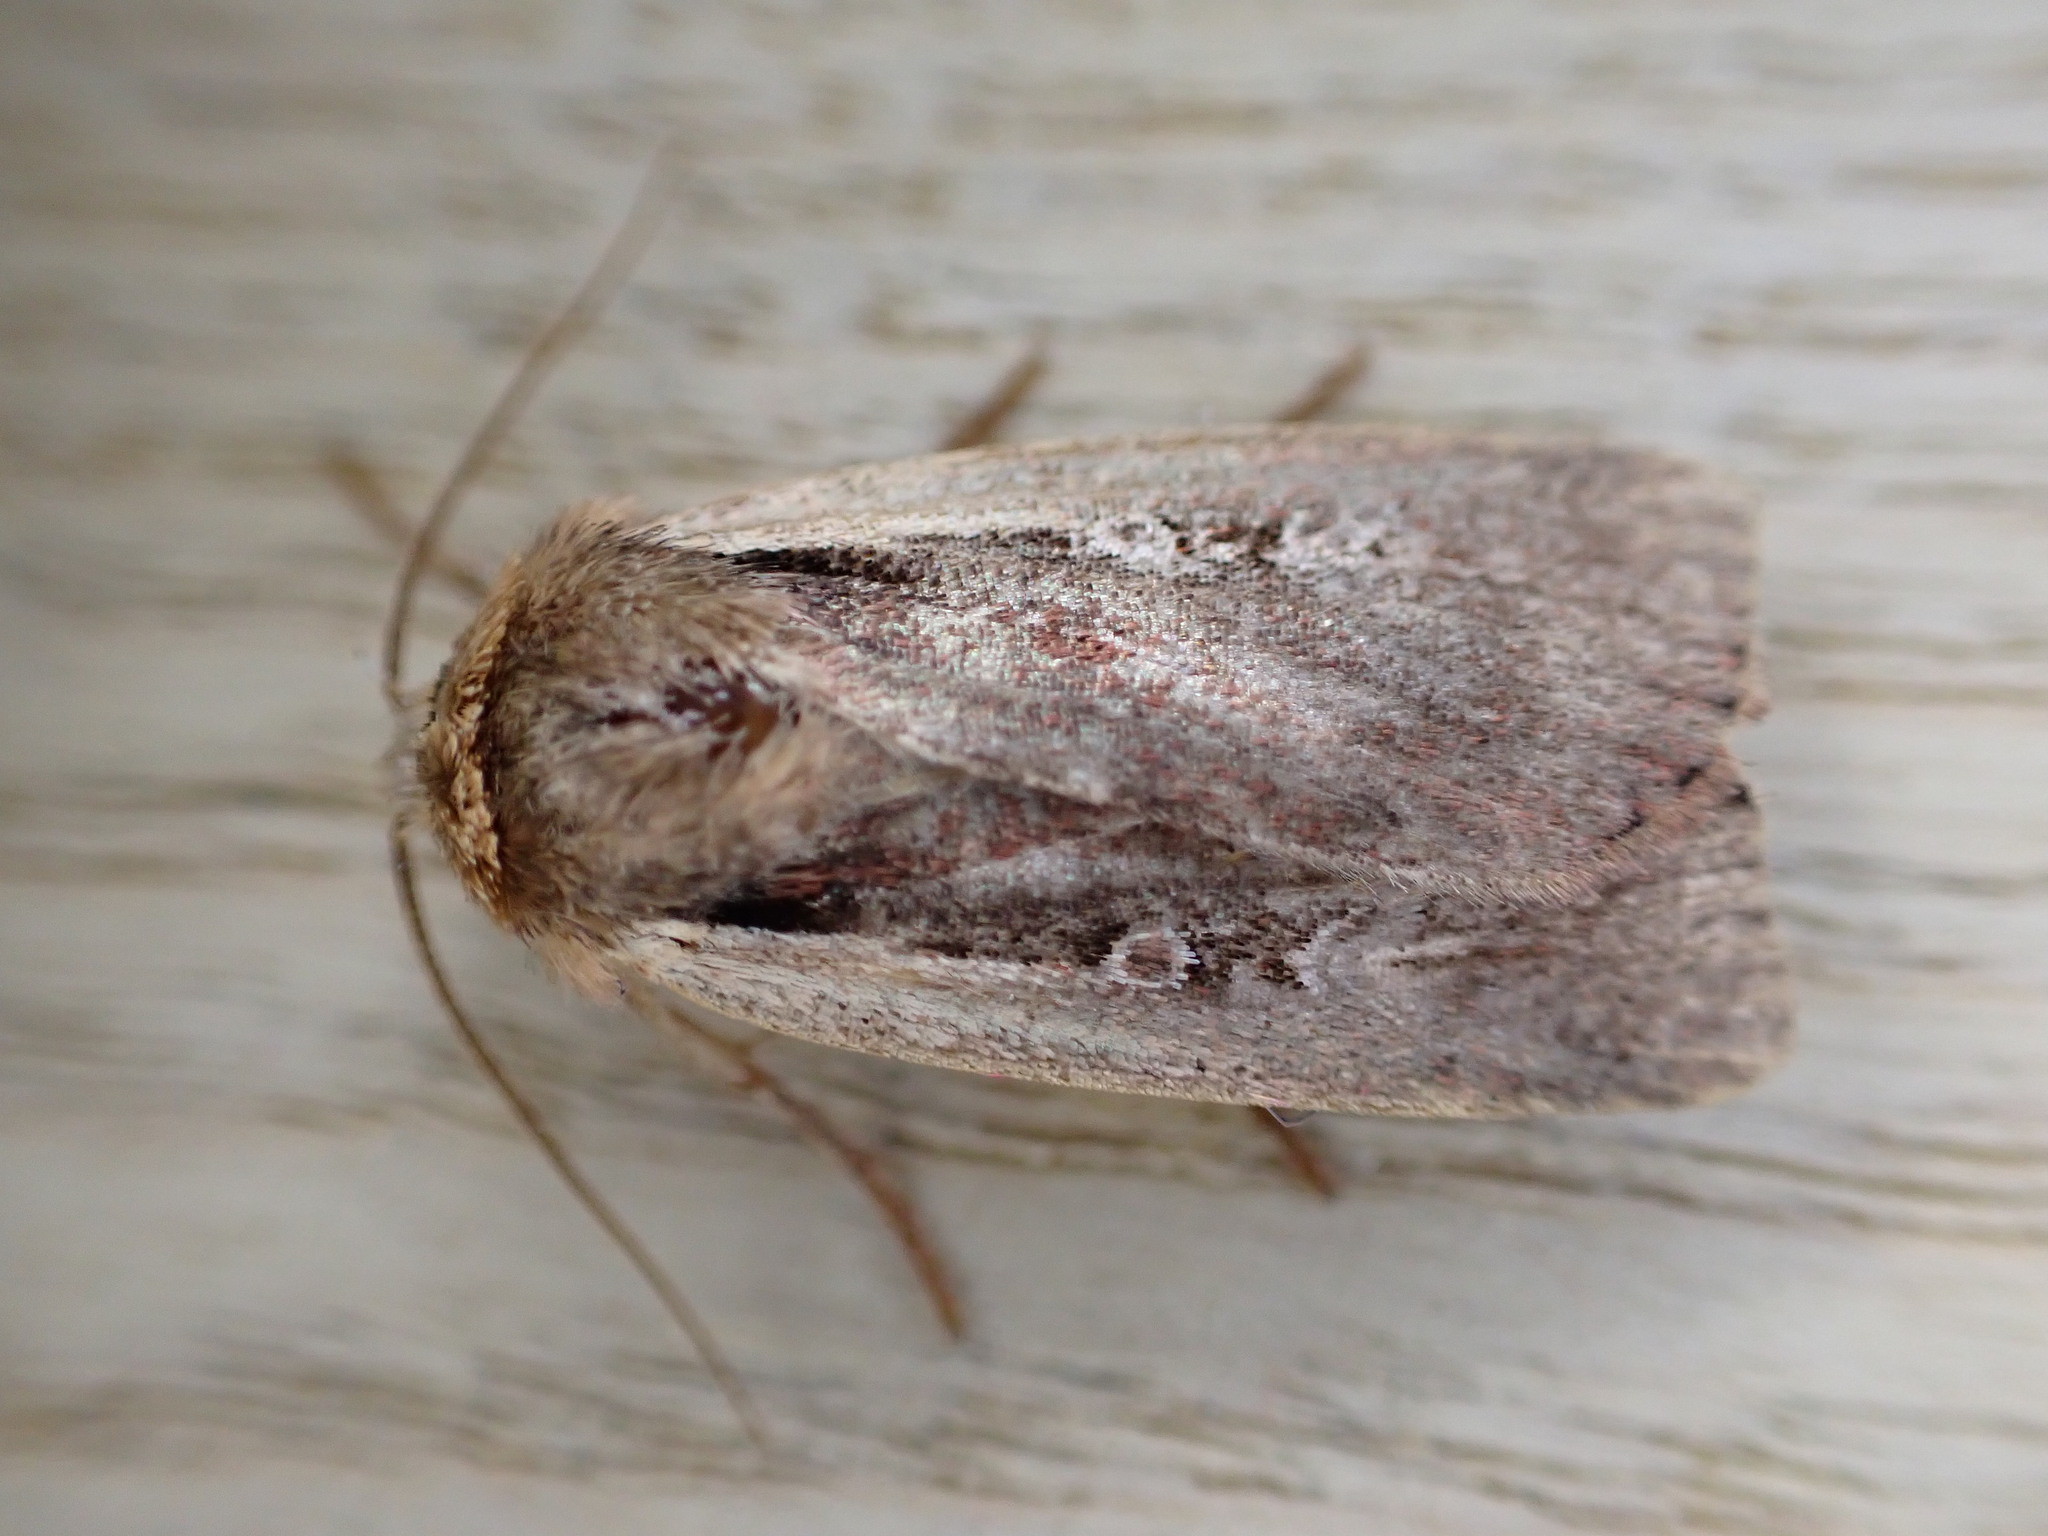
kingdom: Animalia
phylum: Arthropoda
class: Insecta
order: Lepidoptera
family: Noctuidae
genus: Ochropleura
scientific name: Ochropleura plecta
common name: Flame shoulder
